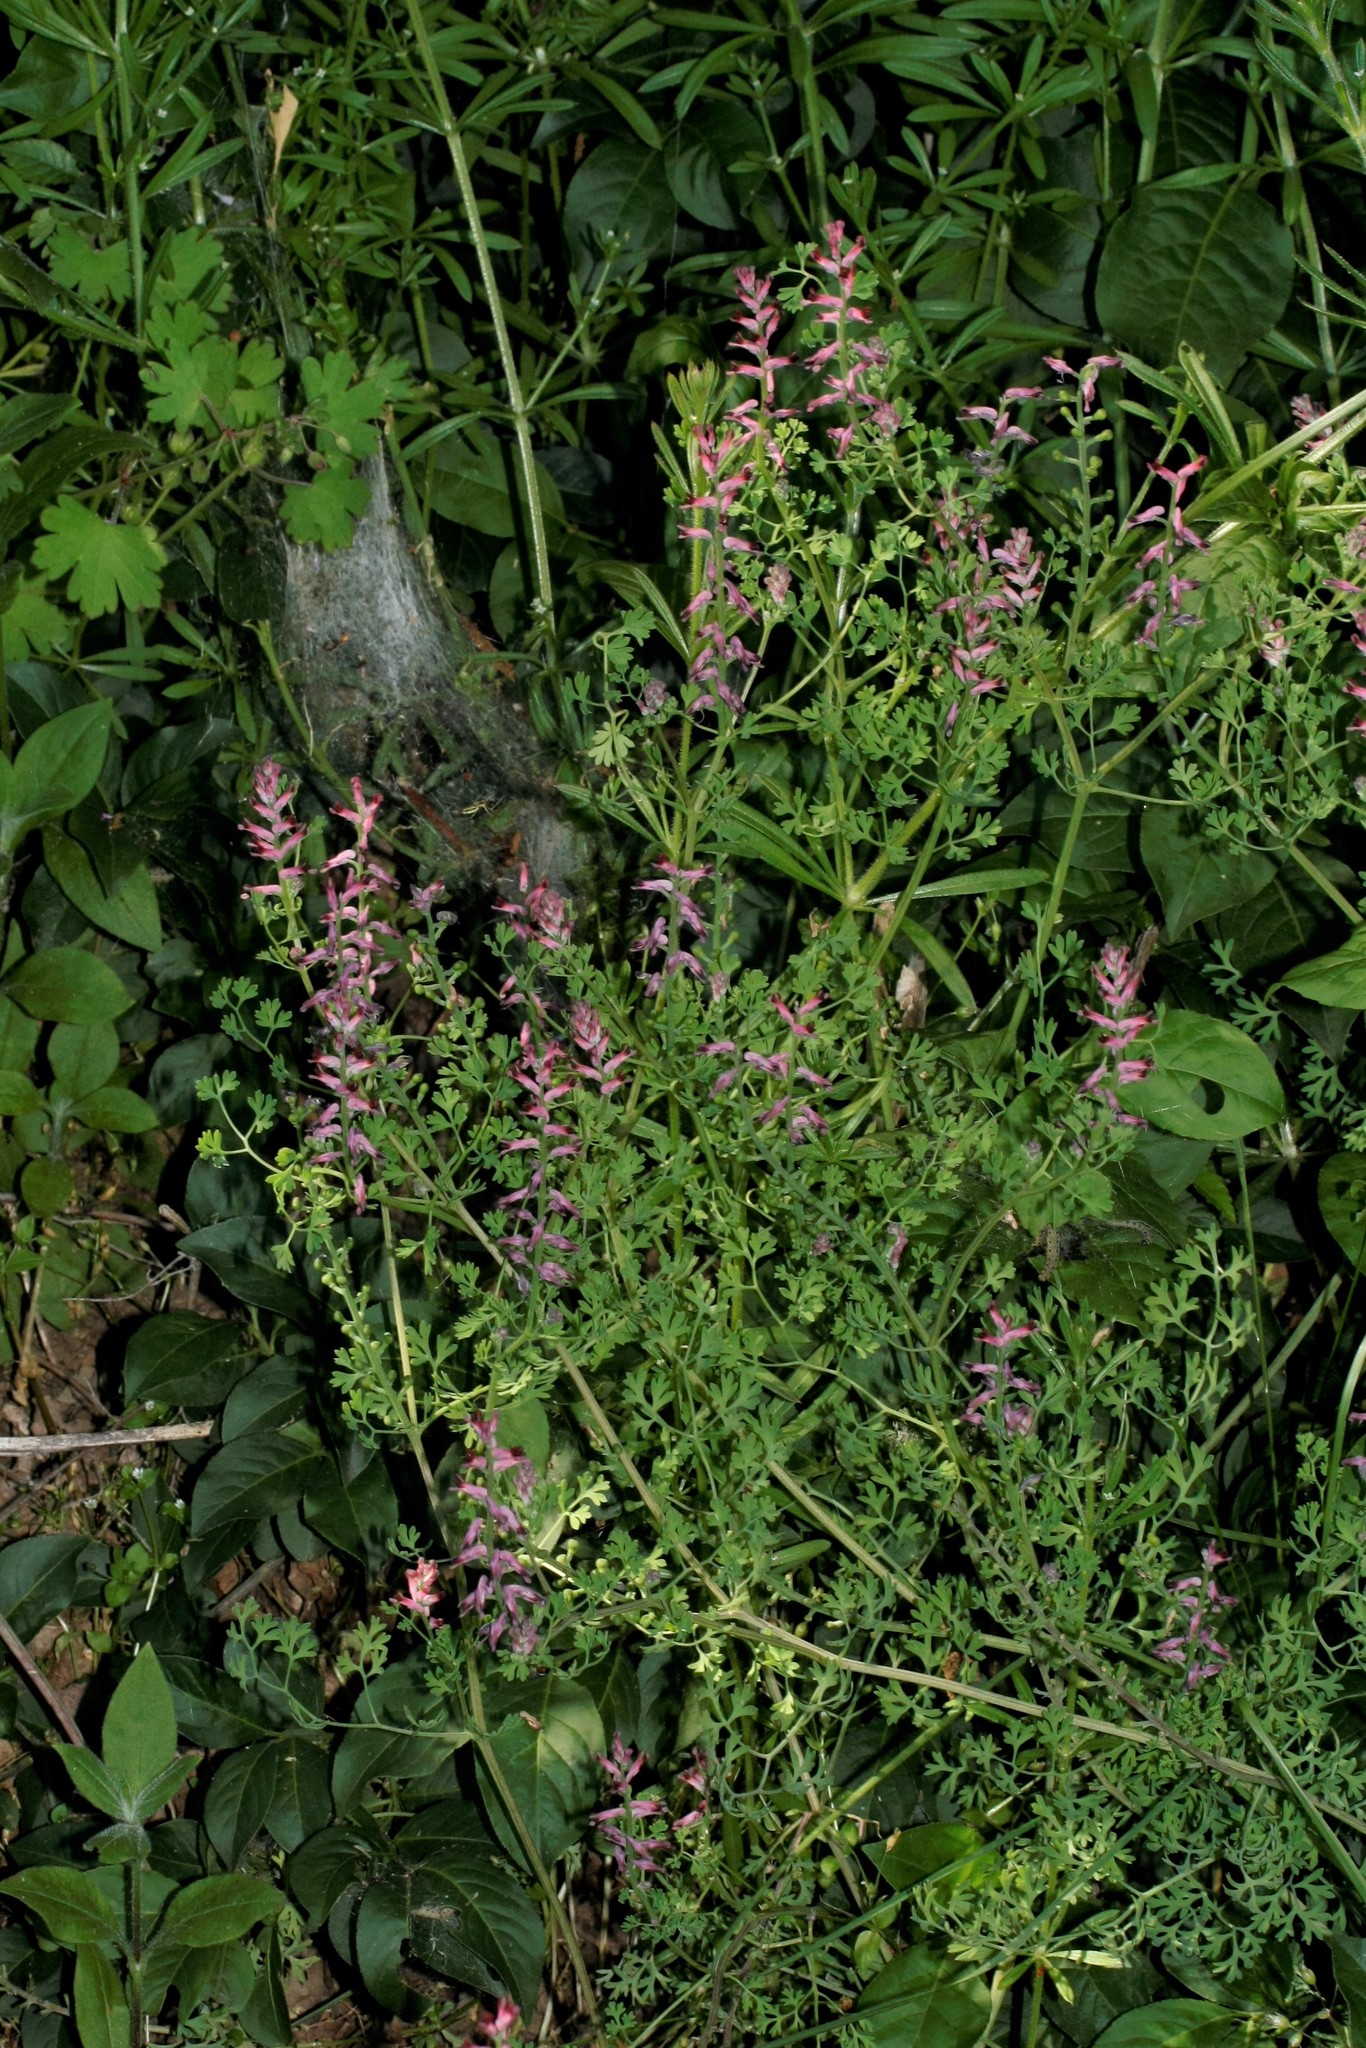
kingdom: Plantae
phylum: Tracheophyta
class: Magnoliopsida
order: Ranunculales
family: Papaveraceae
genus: Fumaria
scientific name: Fumaria officinalis
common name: Common fumitory
